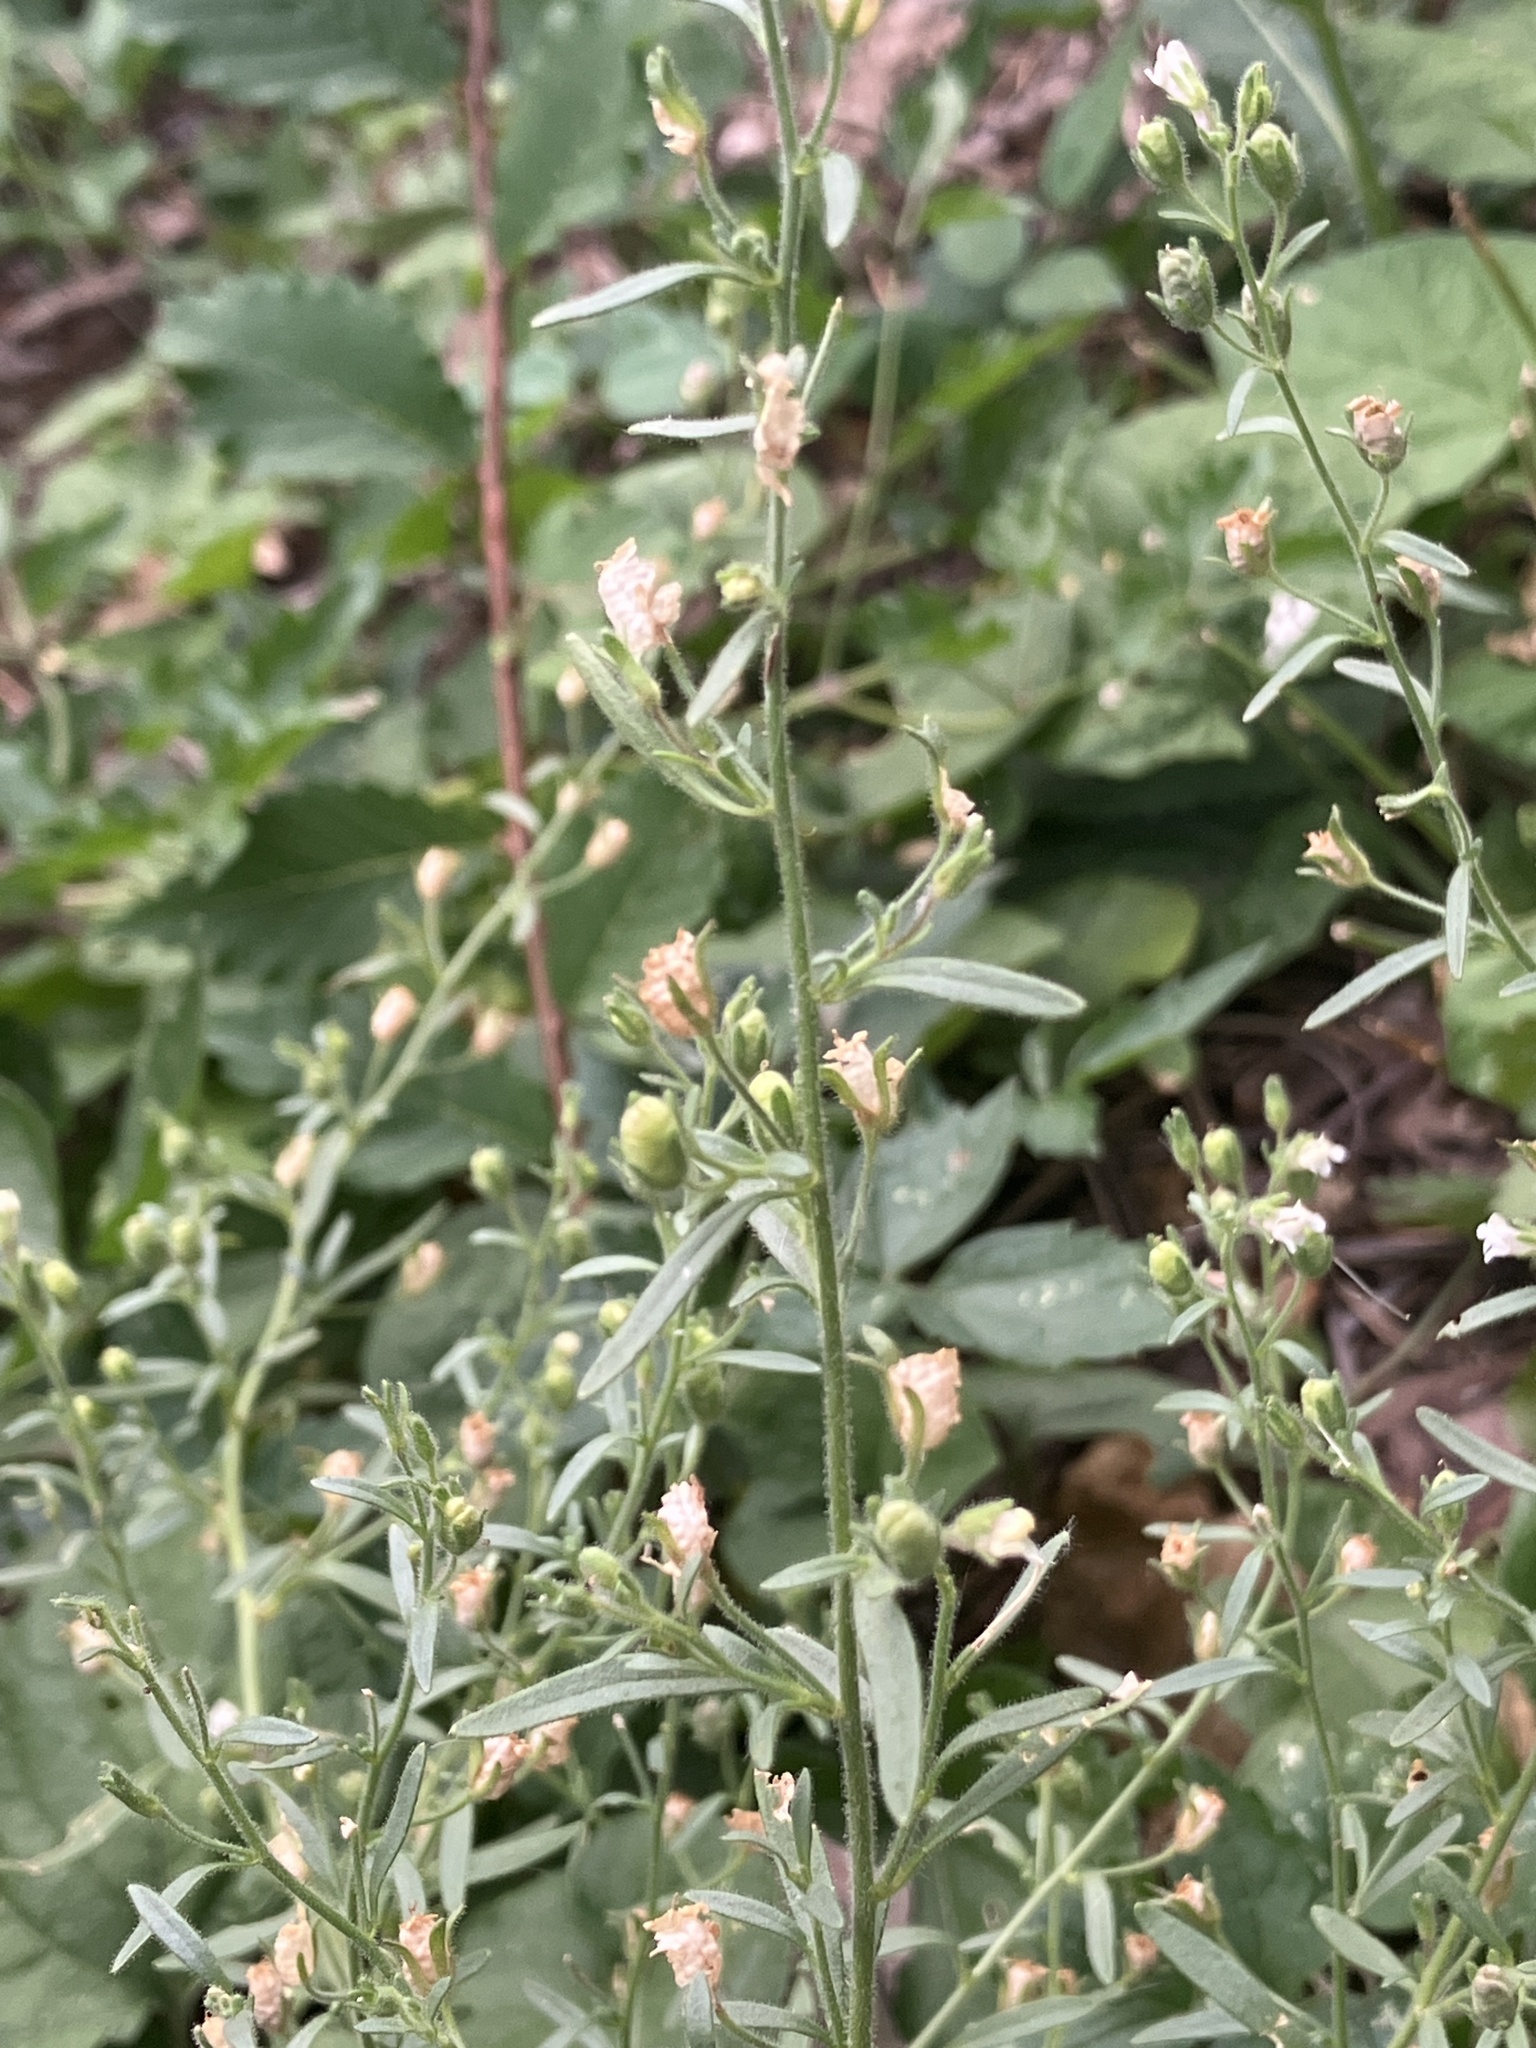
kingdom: Plantae
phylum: Tracheophyta
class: Magnoliopsida
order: Lamiales
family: Plantaginaceae
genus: Chaenorhinum
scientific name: Chaenorhinum minus
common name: Dwarf snapdragon
